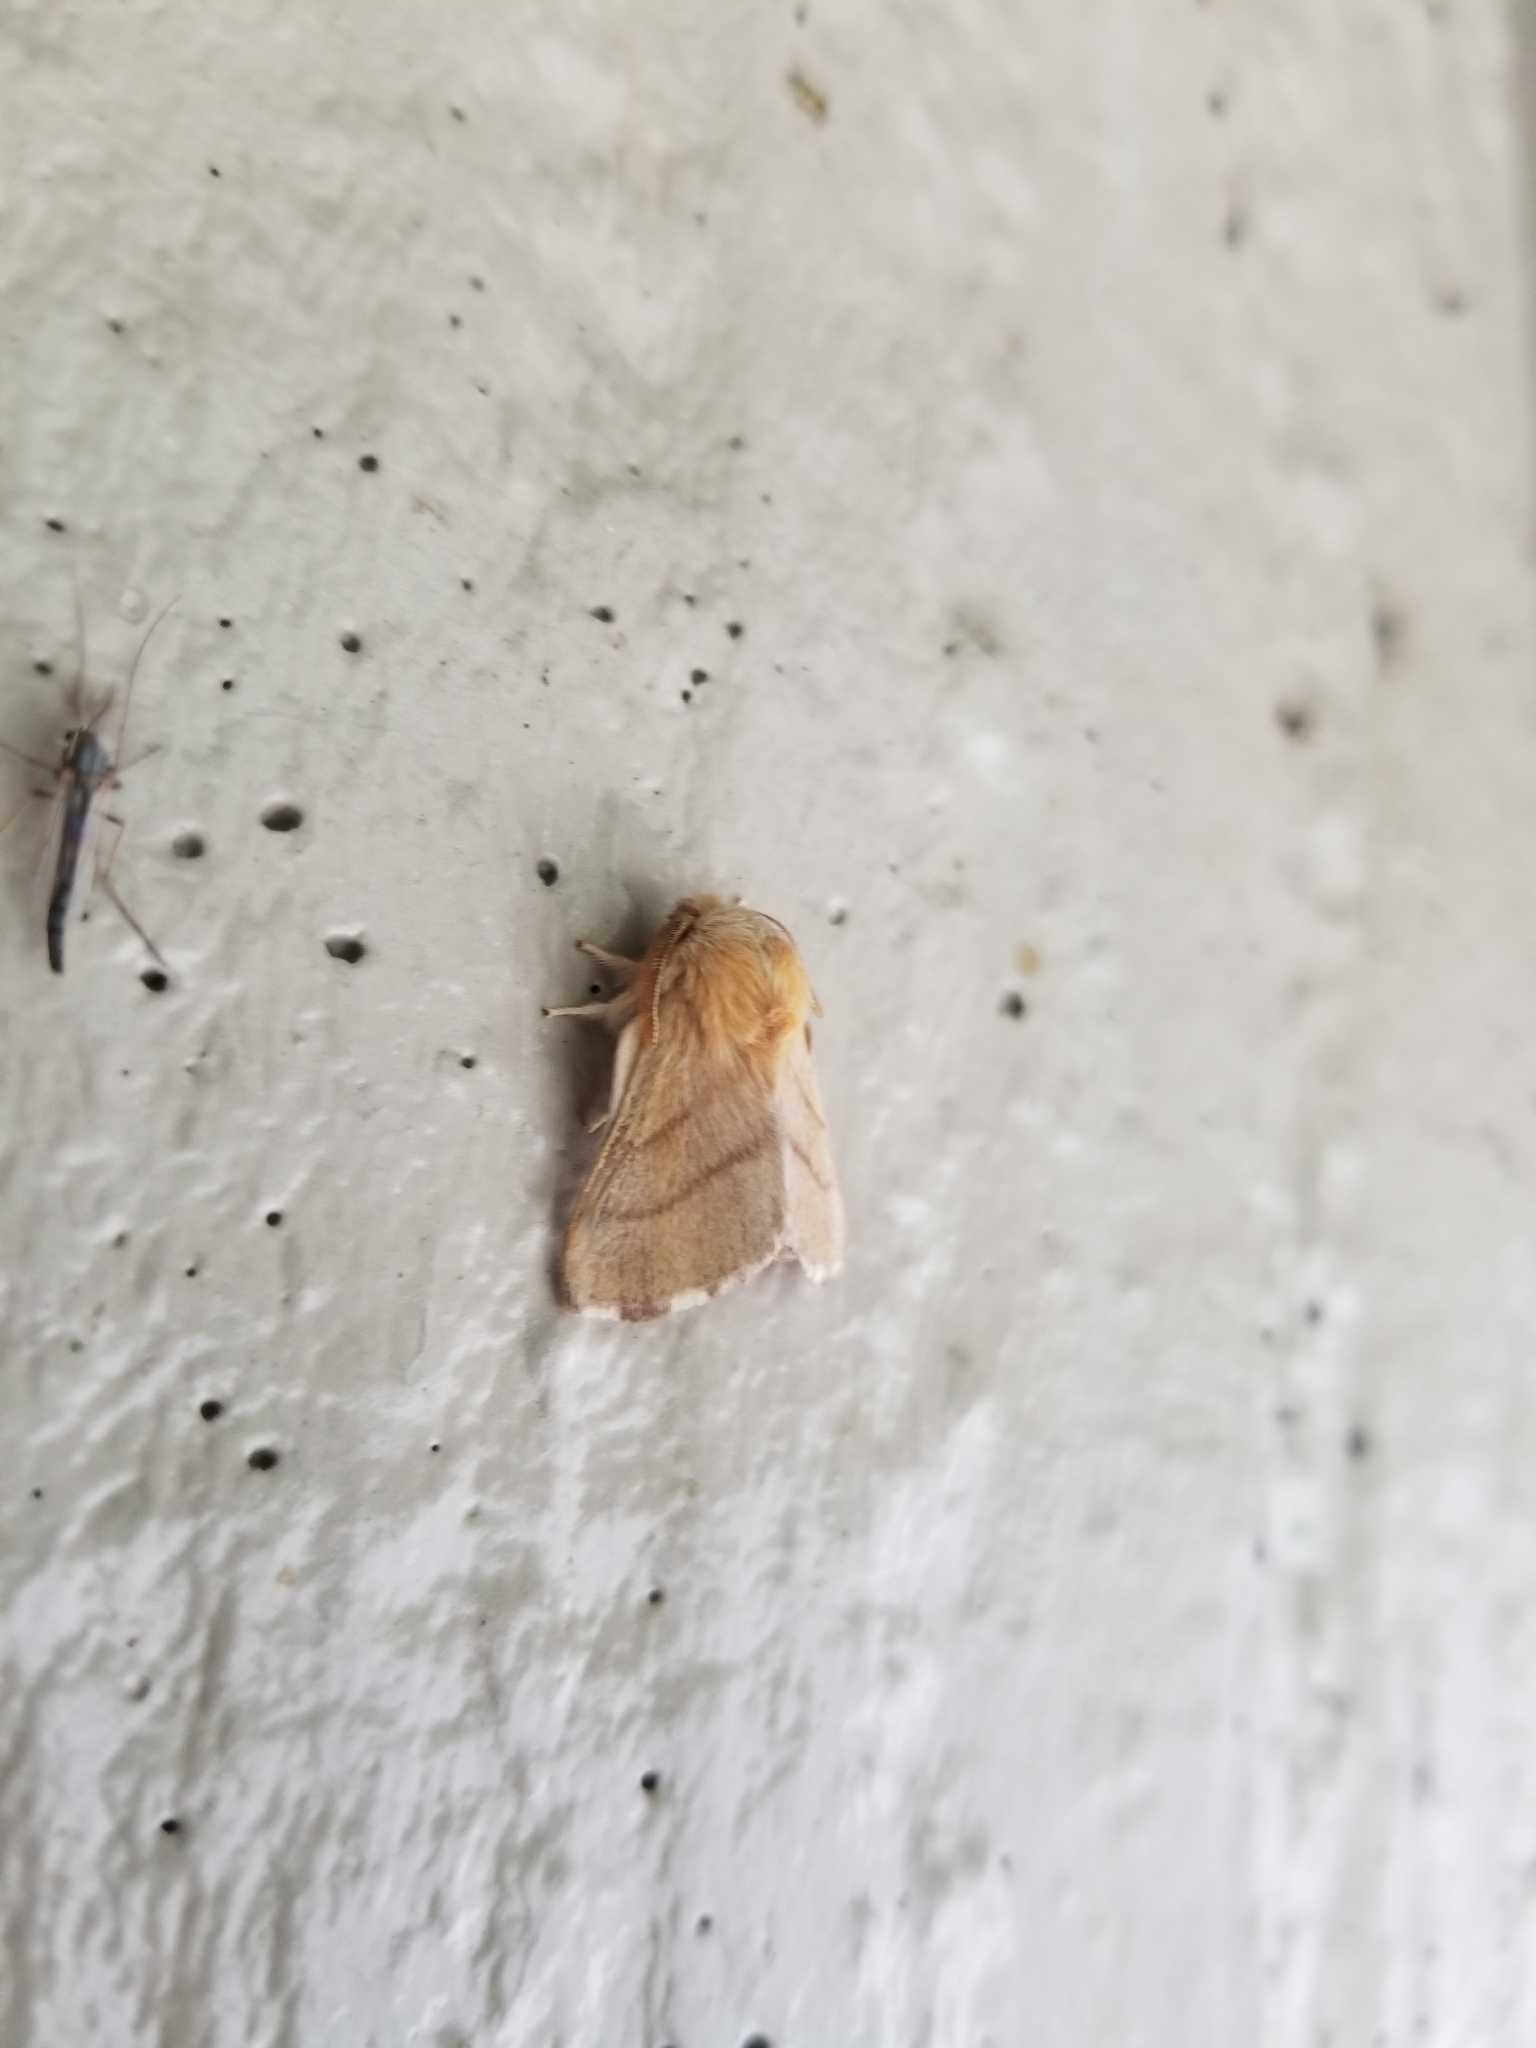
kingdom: Animalia
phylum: Arthropoda
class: Insecta
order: Lepidoptera
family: Lasiocampidae
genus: Malacosoma
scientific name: Malacosoma disstria
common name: Forest tent caterpillar
